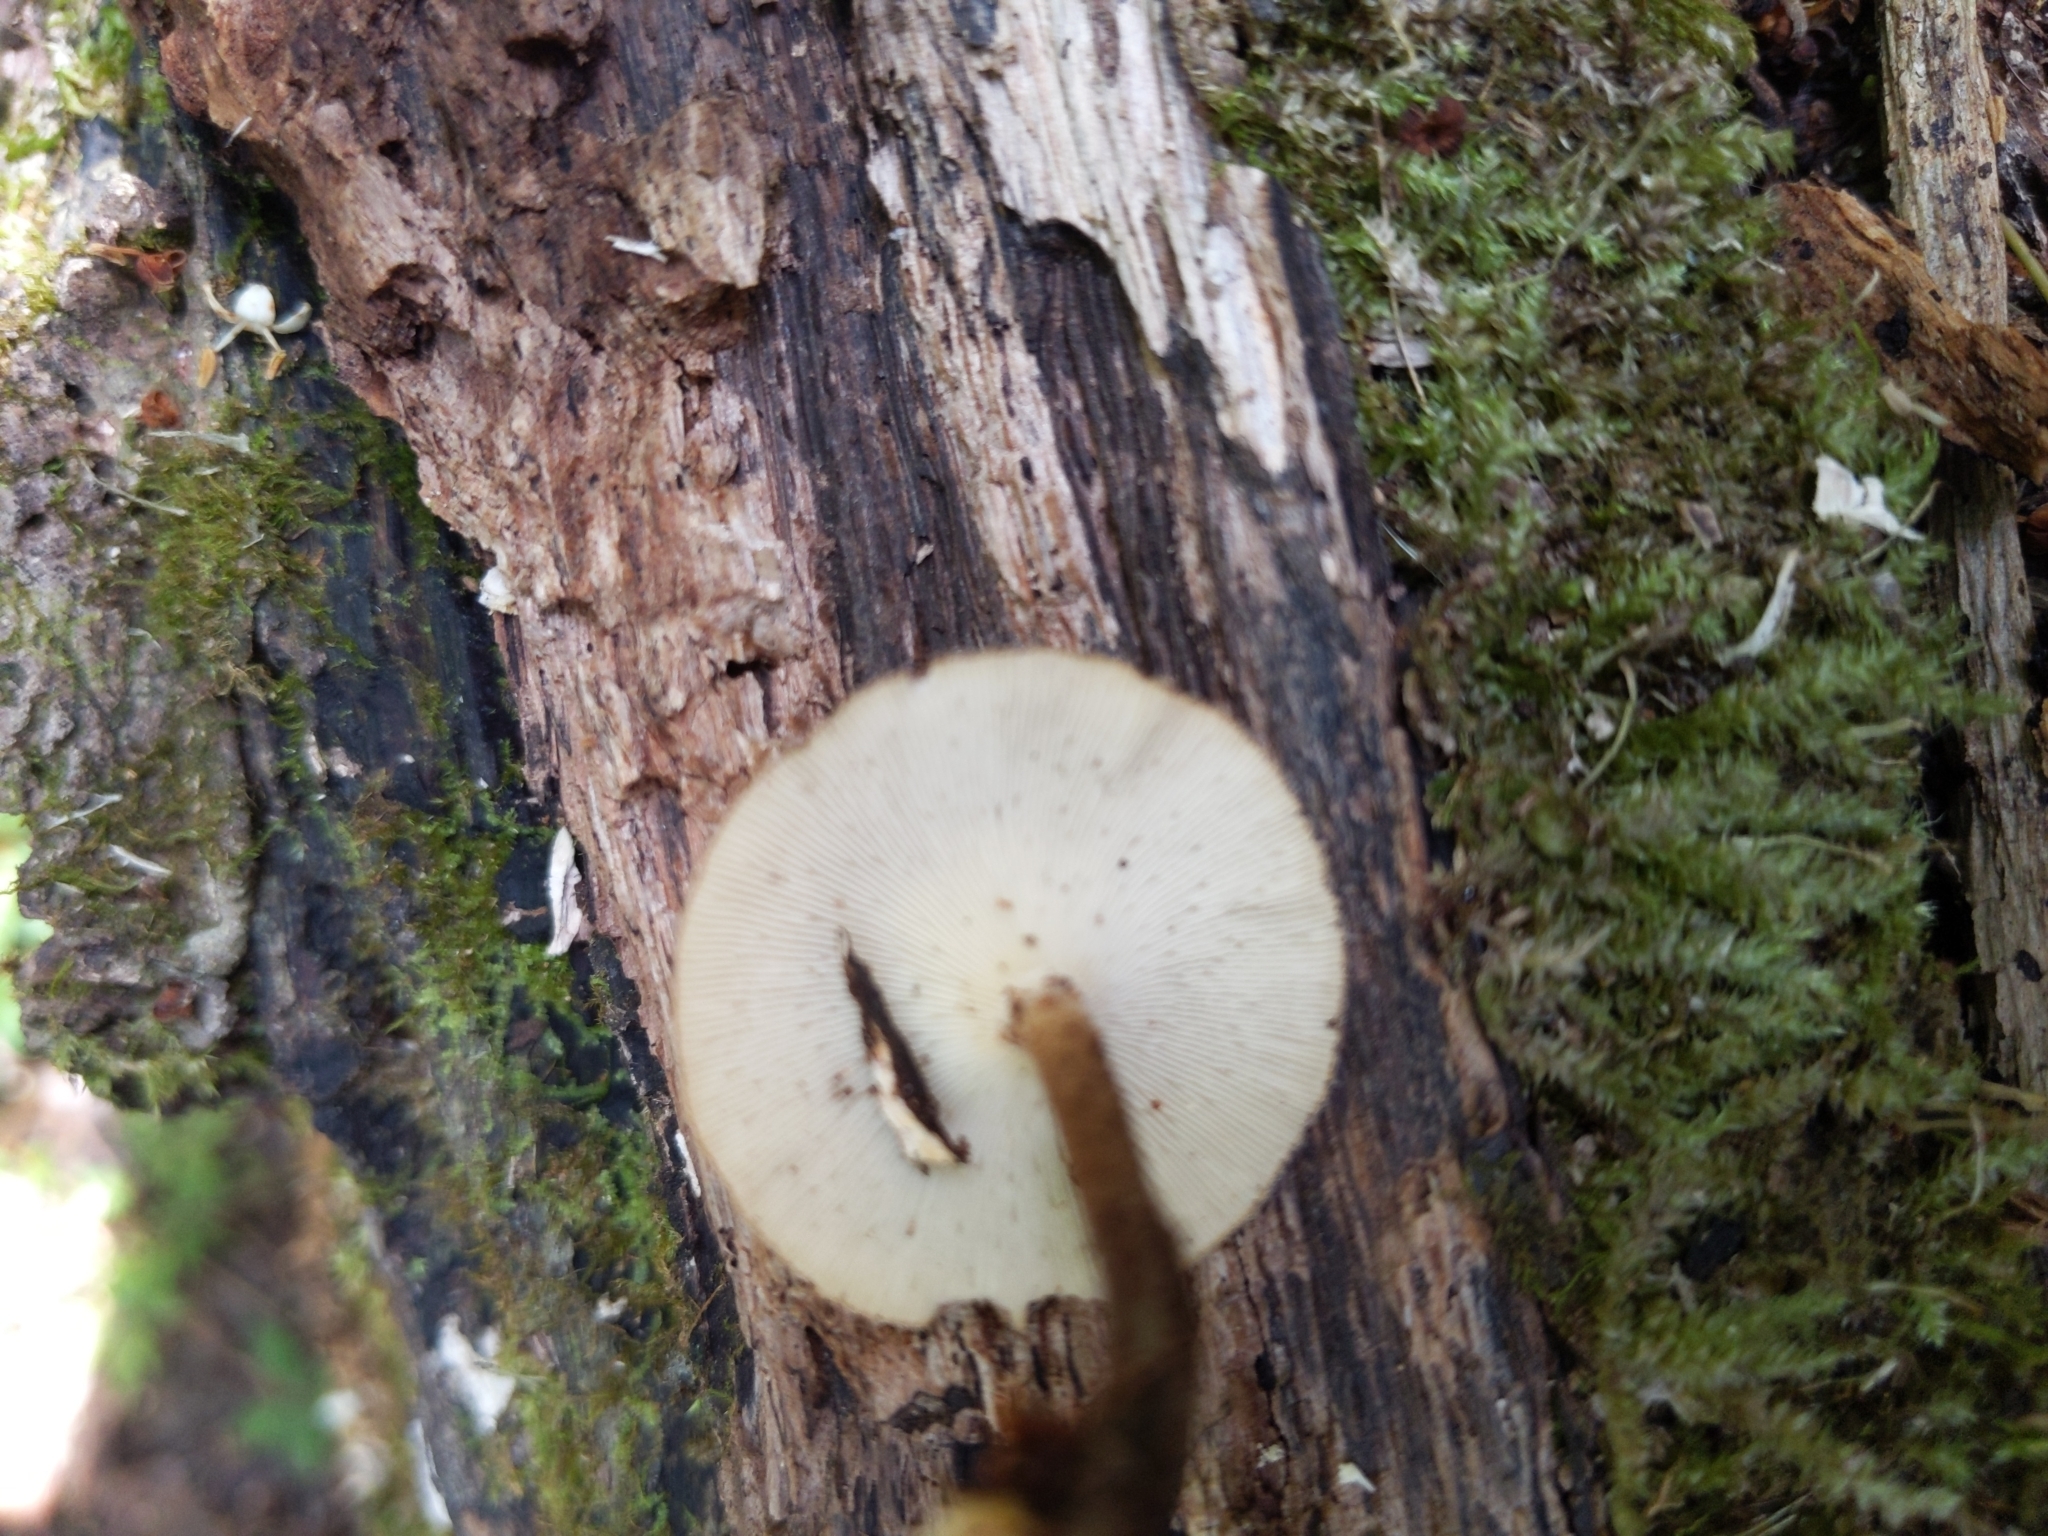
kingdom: Fungi
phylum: Basidiomycota
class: Agaricomycetes
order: Polyporales
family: Polyporaceae
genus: Lentinus
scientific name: Lentinus crinitus
